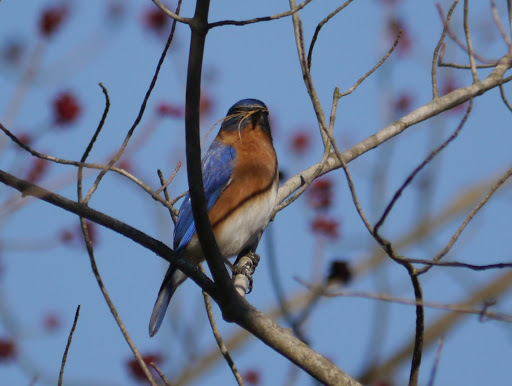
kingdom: Animalia
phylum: Chordata
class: Aves
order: Passeriformes
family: Turdidae
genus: Sialia
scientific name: Sialia sialis
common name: Eastern bluebird
